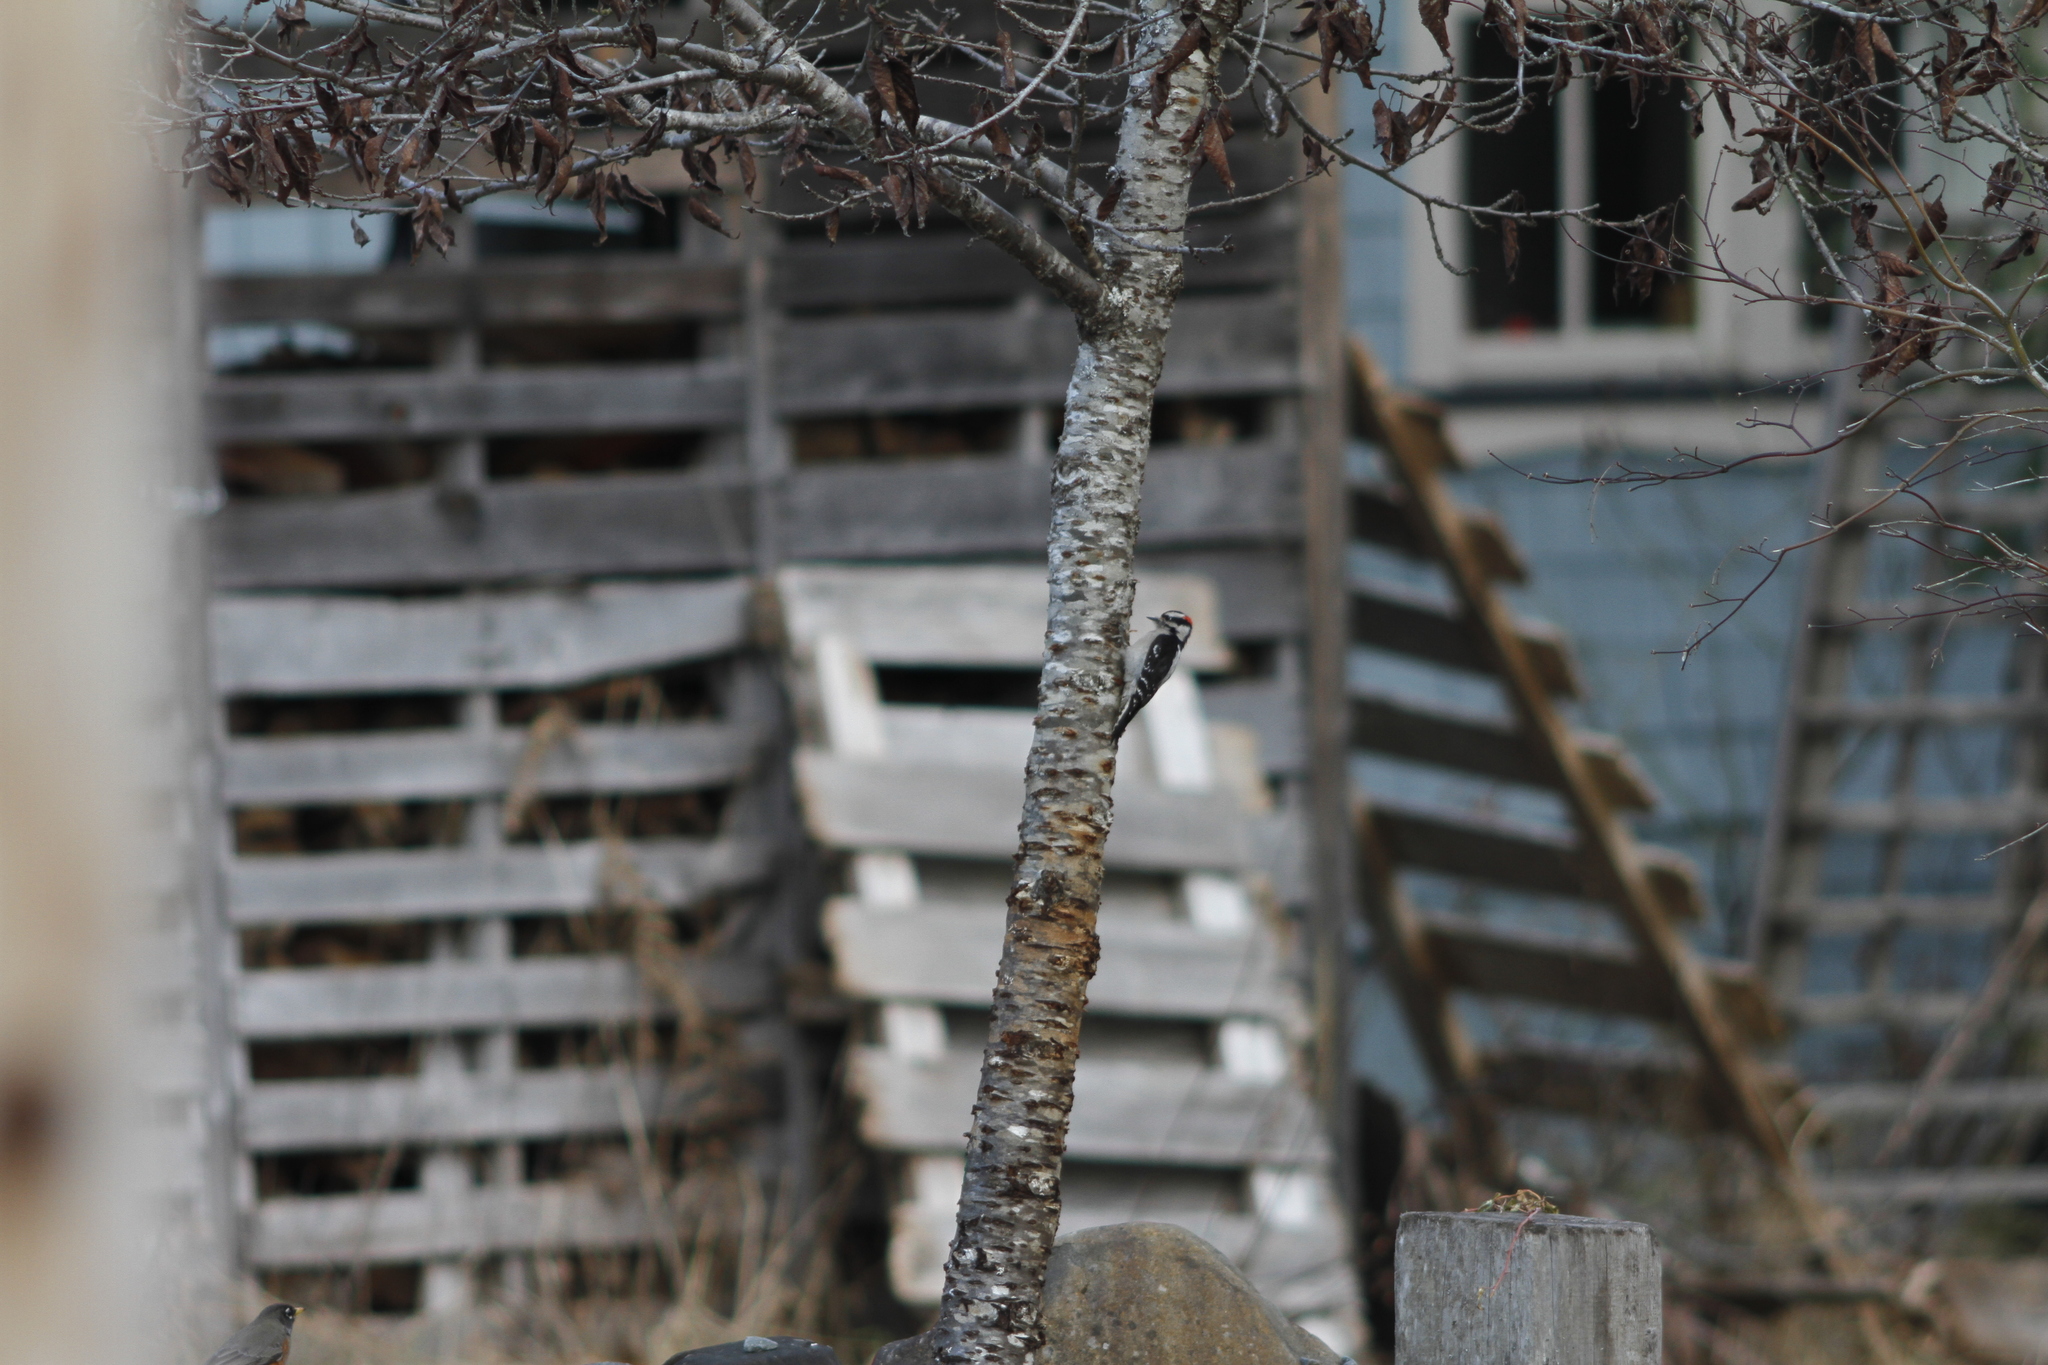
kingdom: Animalia
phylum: Chordata
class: Aves
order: Piciformes
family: Picidae
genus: Dryobates
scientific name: Dryobates pubescens
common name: Downy woodpecker
